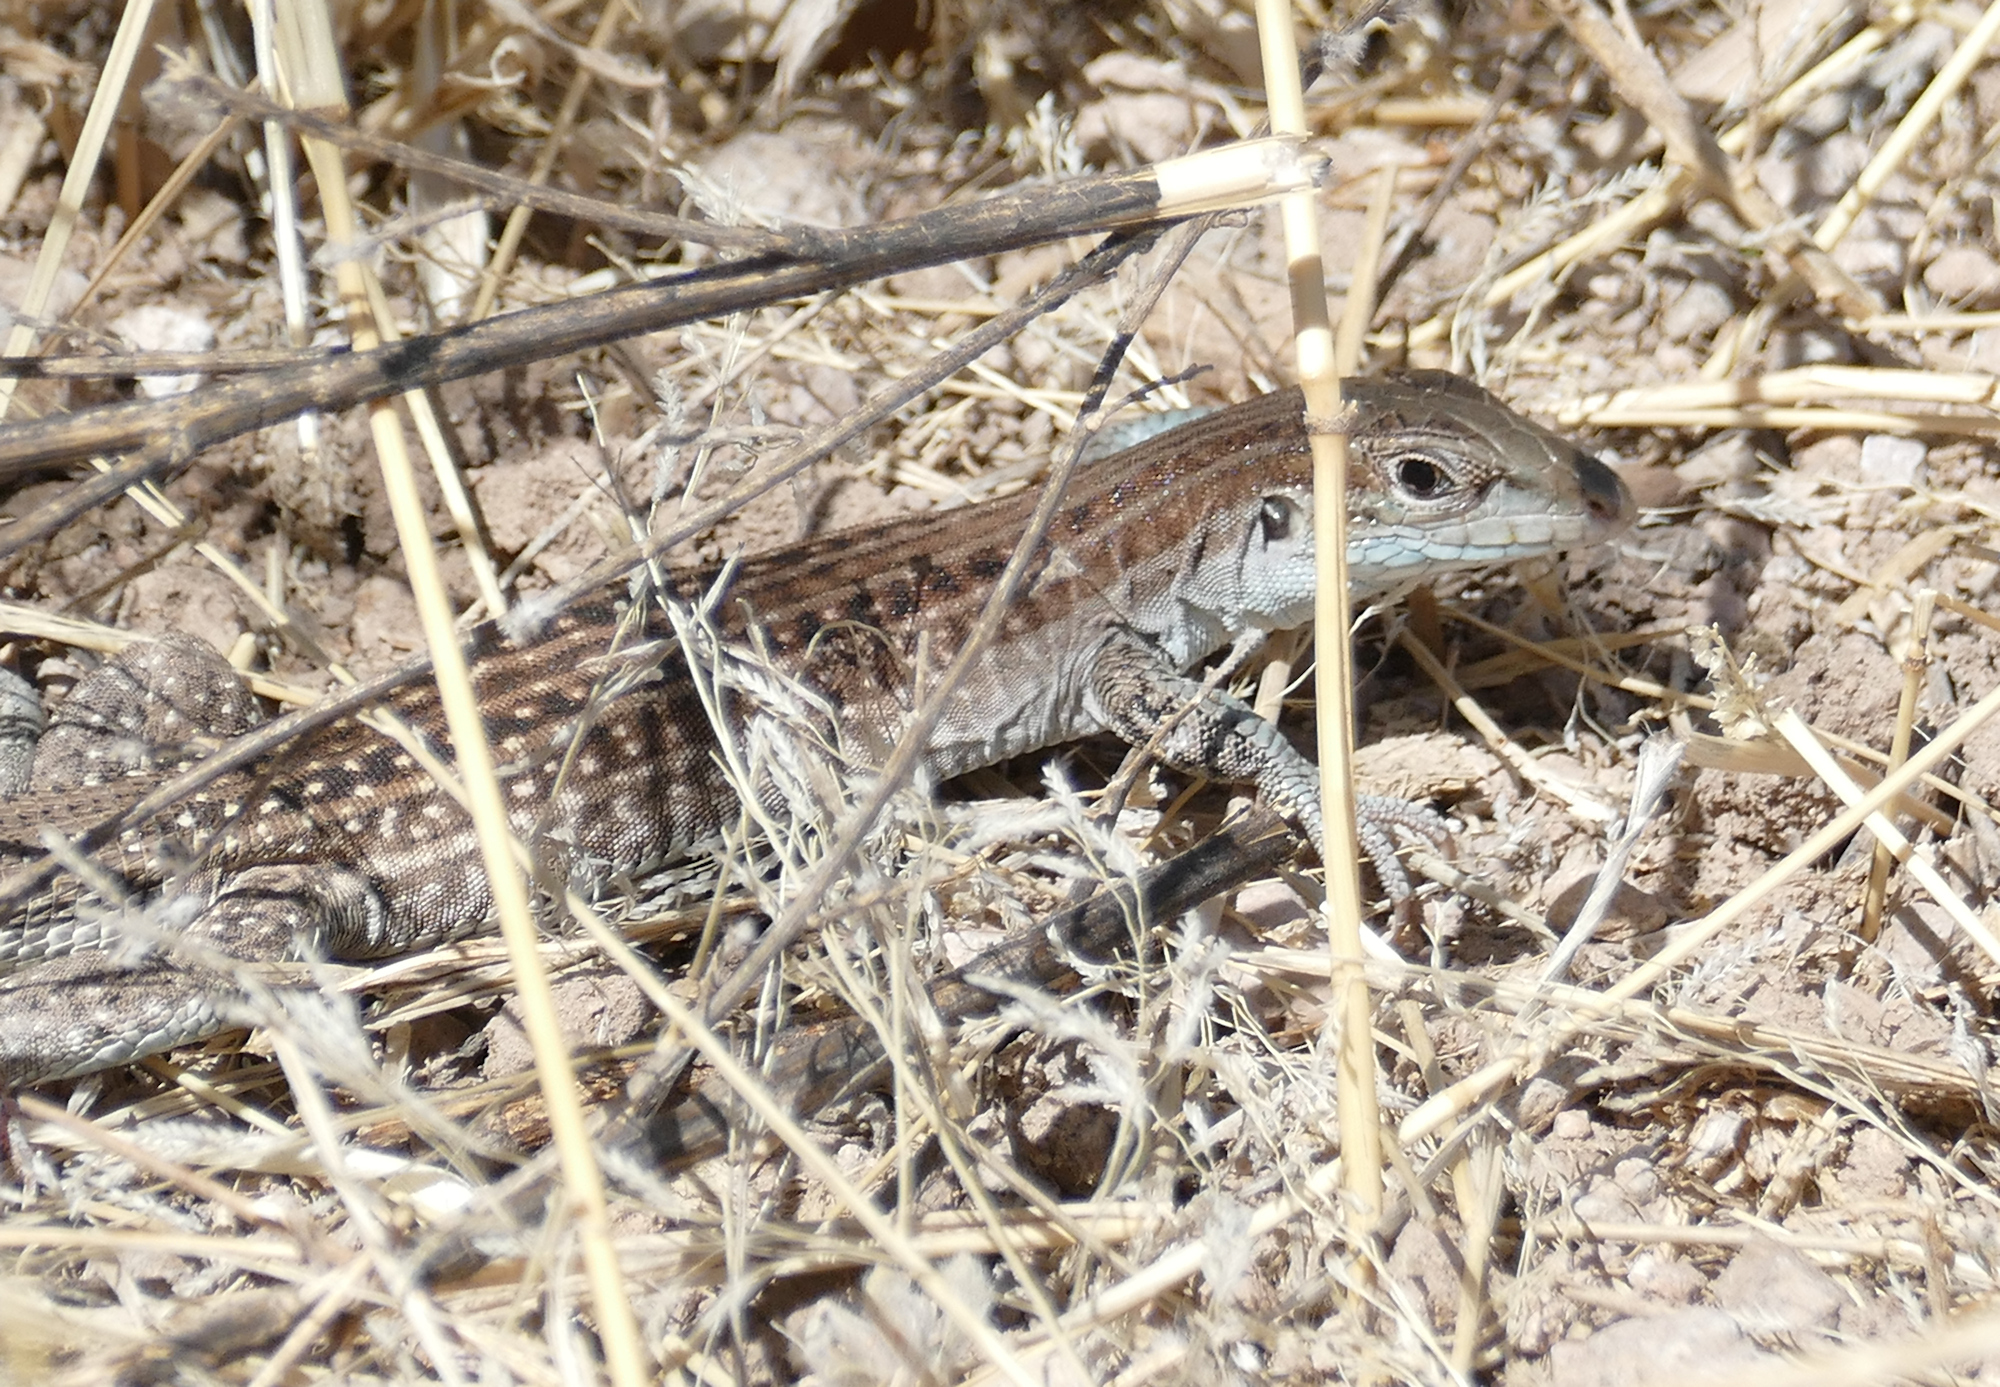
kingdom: Animalia
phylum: Chordata
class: Squamata
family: Teiidae
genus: Aspidoscelis
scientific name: Aspidoscelis exsanguis
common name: Chihuahuan spotted whiptail
